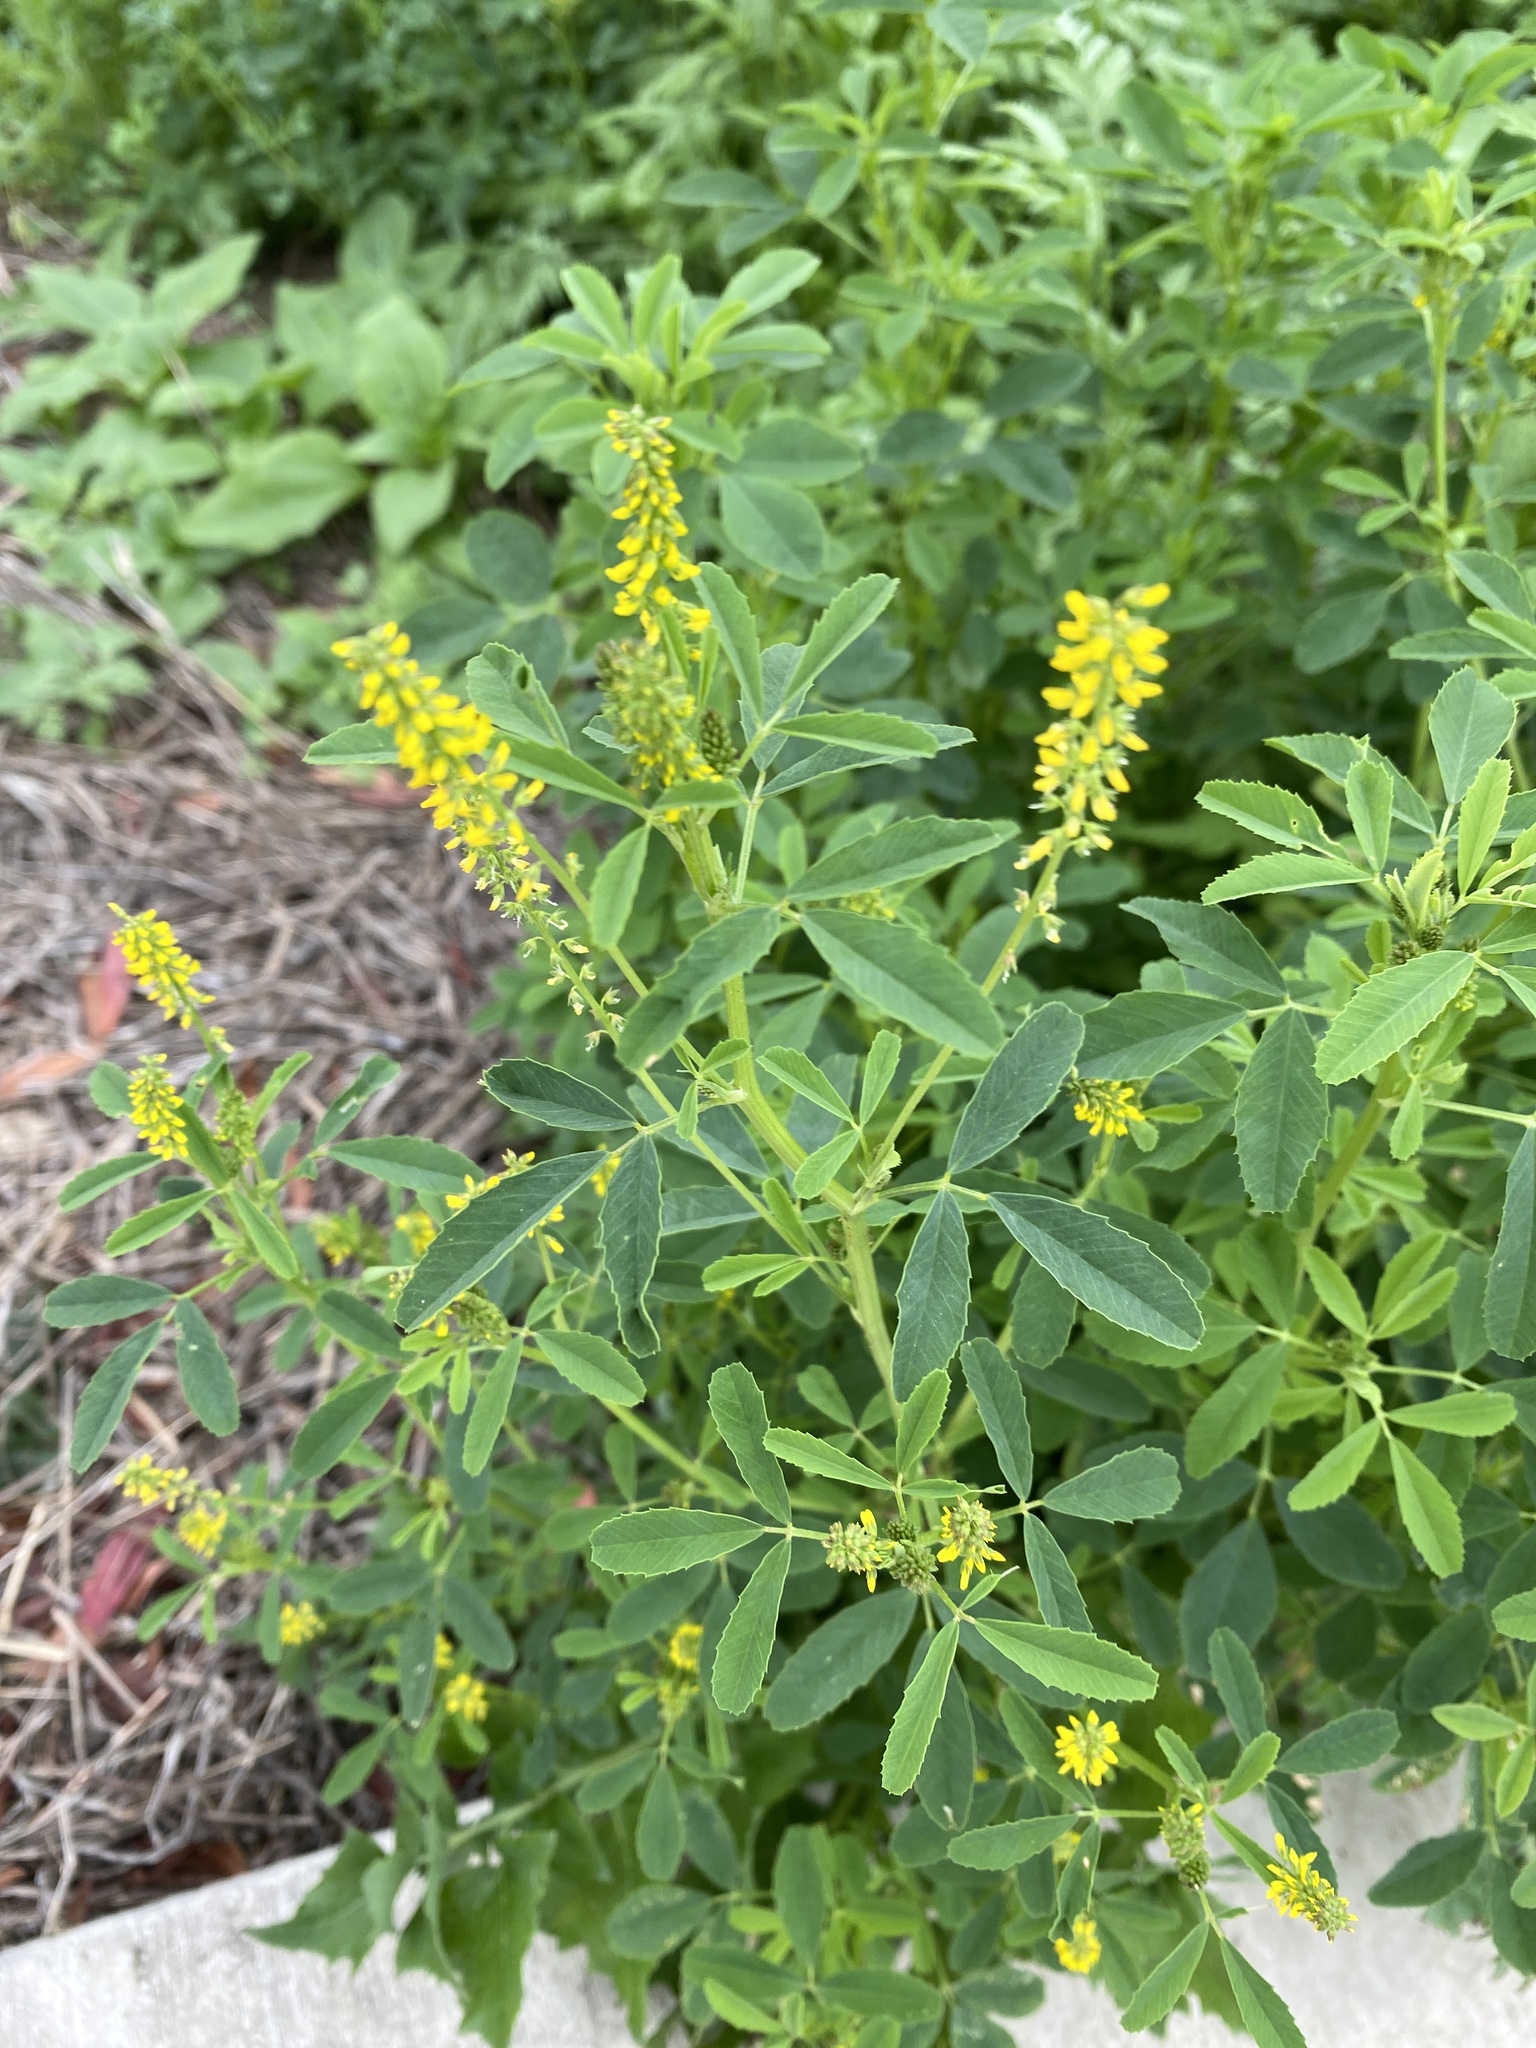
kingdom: Plantae
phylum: Tracheophyta
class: Magnoliopsida
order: Fabales
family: Fabaceae
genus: Melilotus
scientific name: Melilotus indicus
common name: Small melilot
